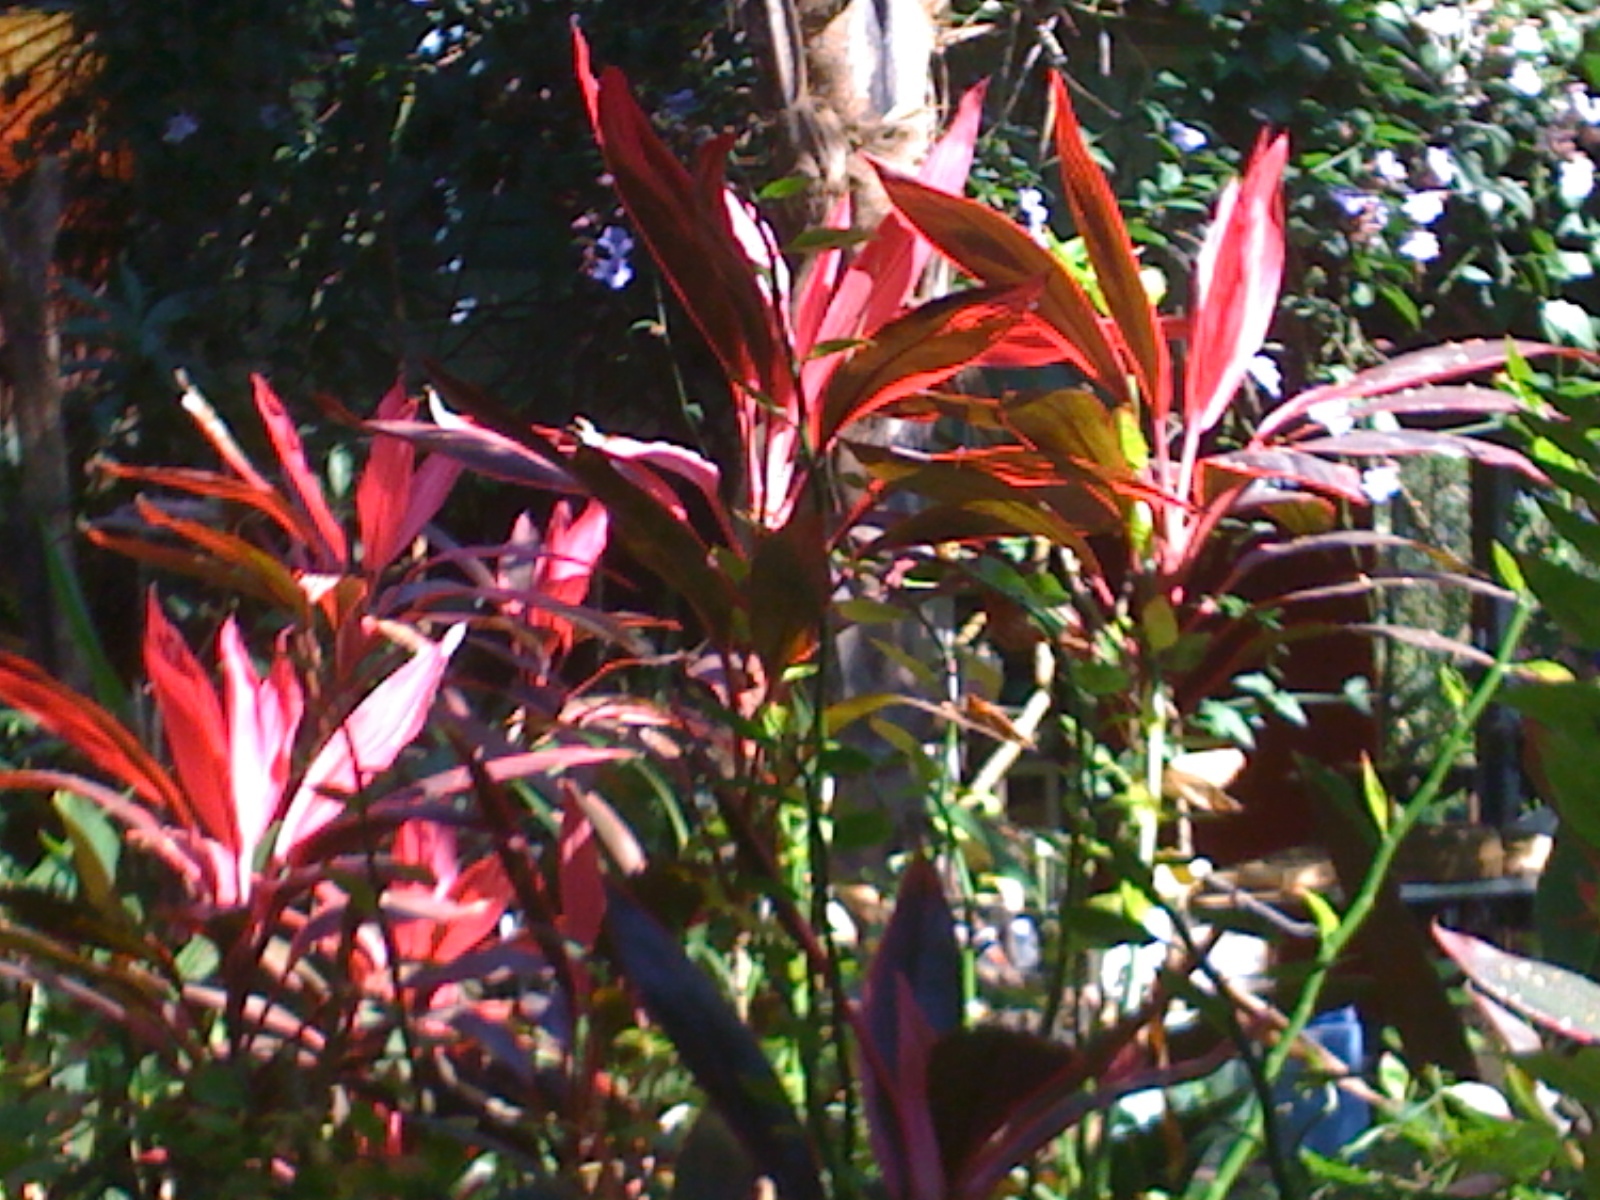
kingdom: Plantae
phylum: Tracheophyta
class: Liliopsida
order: Asparagales
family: Asparagaceae
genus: Cordyline
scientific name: Cordyline fruticosa
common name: Good-luck-plant
